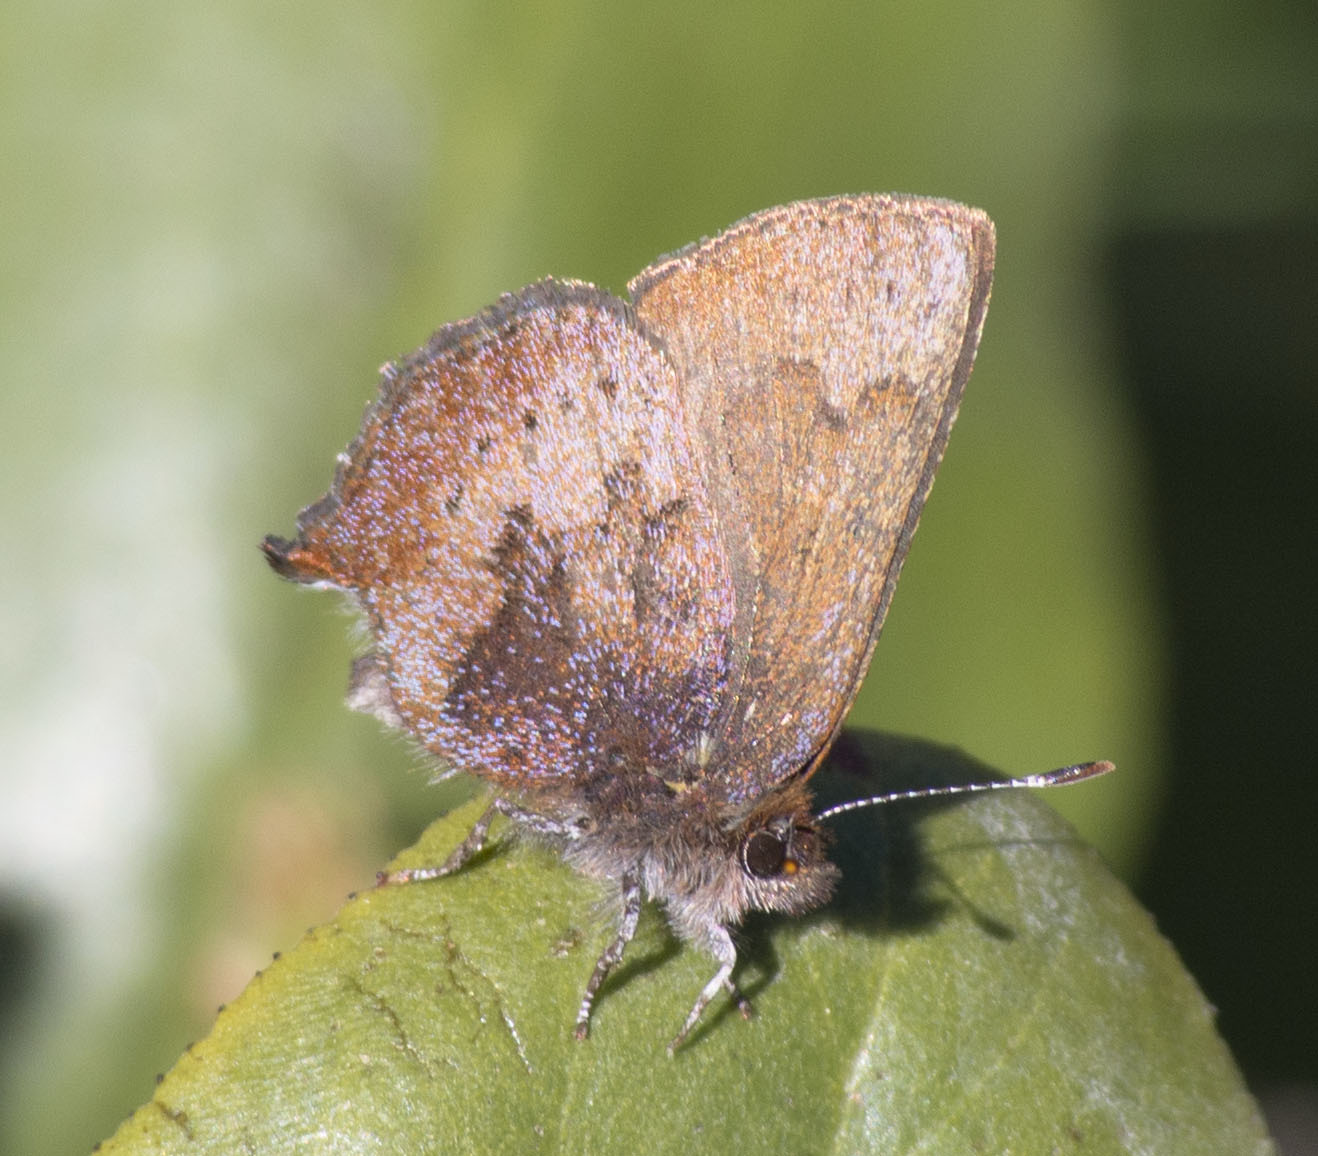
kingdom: Animalia
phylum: Arthropoda
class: Insecta
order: Lepidoptera
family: Lycaenidae
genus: Incisalia
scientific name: Incisalia irioides
